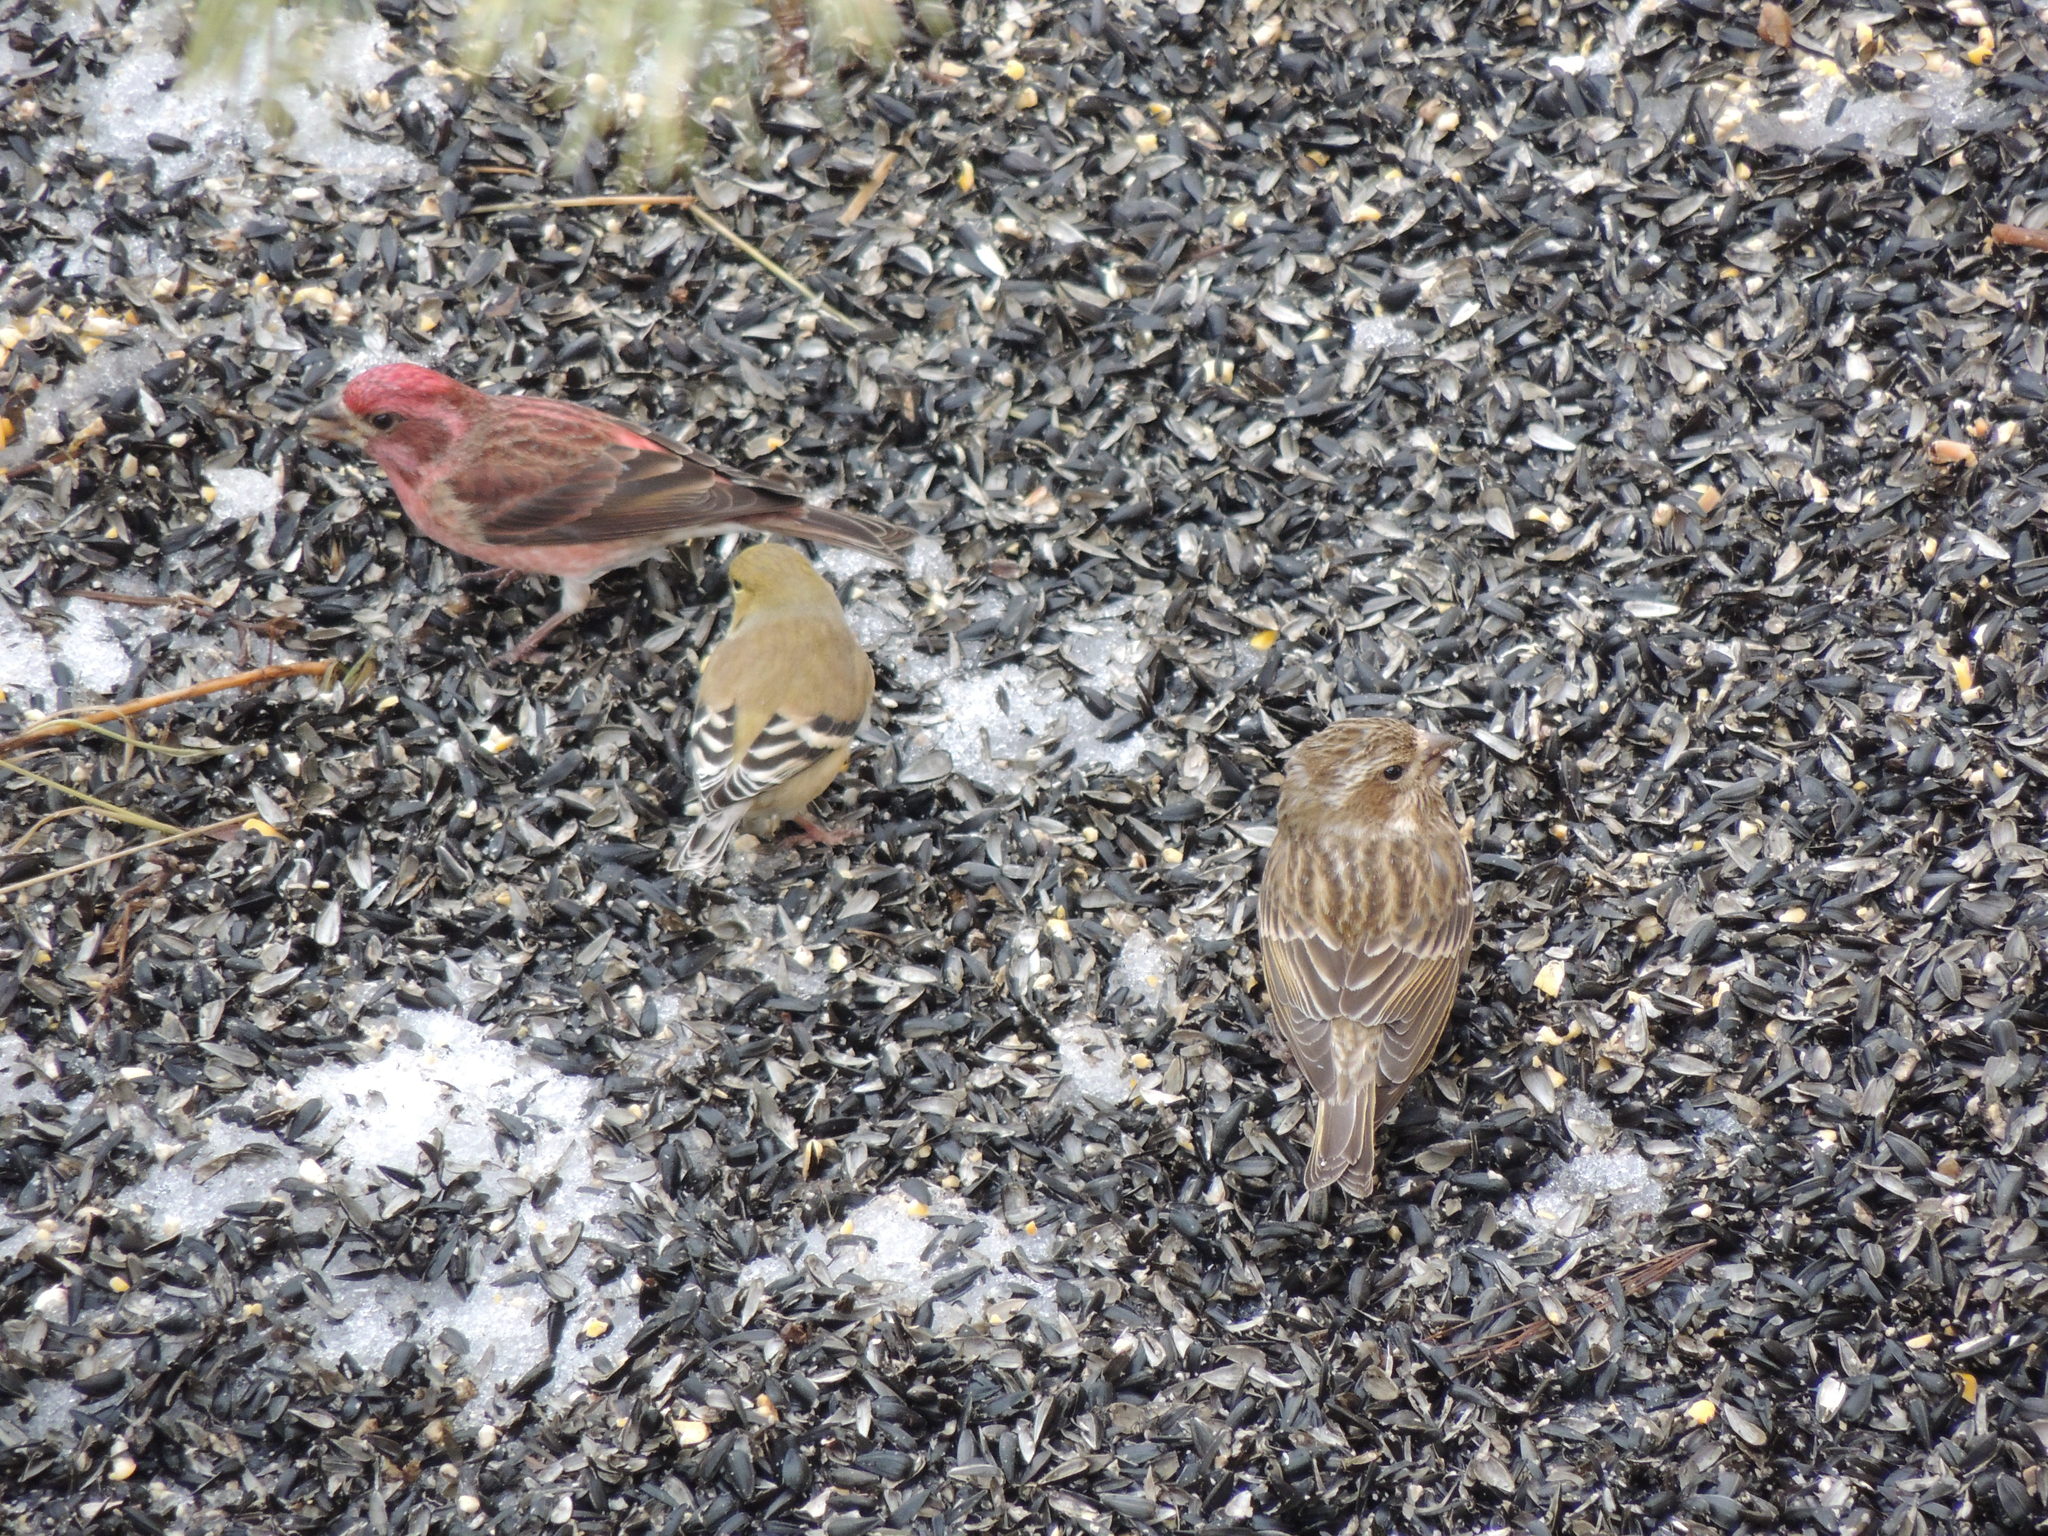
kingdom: Animalia
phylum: Chordata
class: Aves
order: Passeriformes
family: Fringillidae
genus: Haemorhous
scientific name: Haemorhous purpureus
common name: Purple finch
